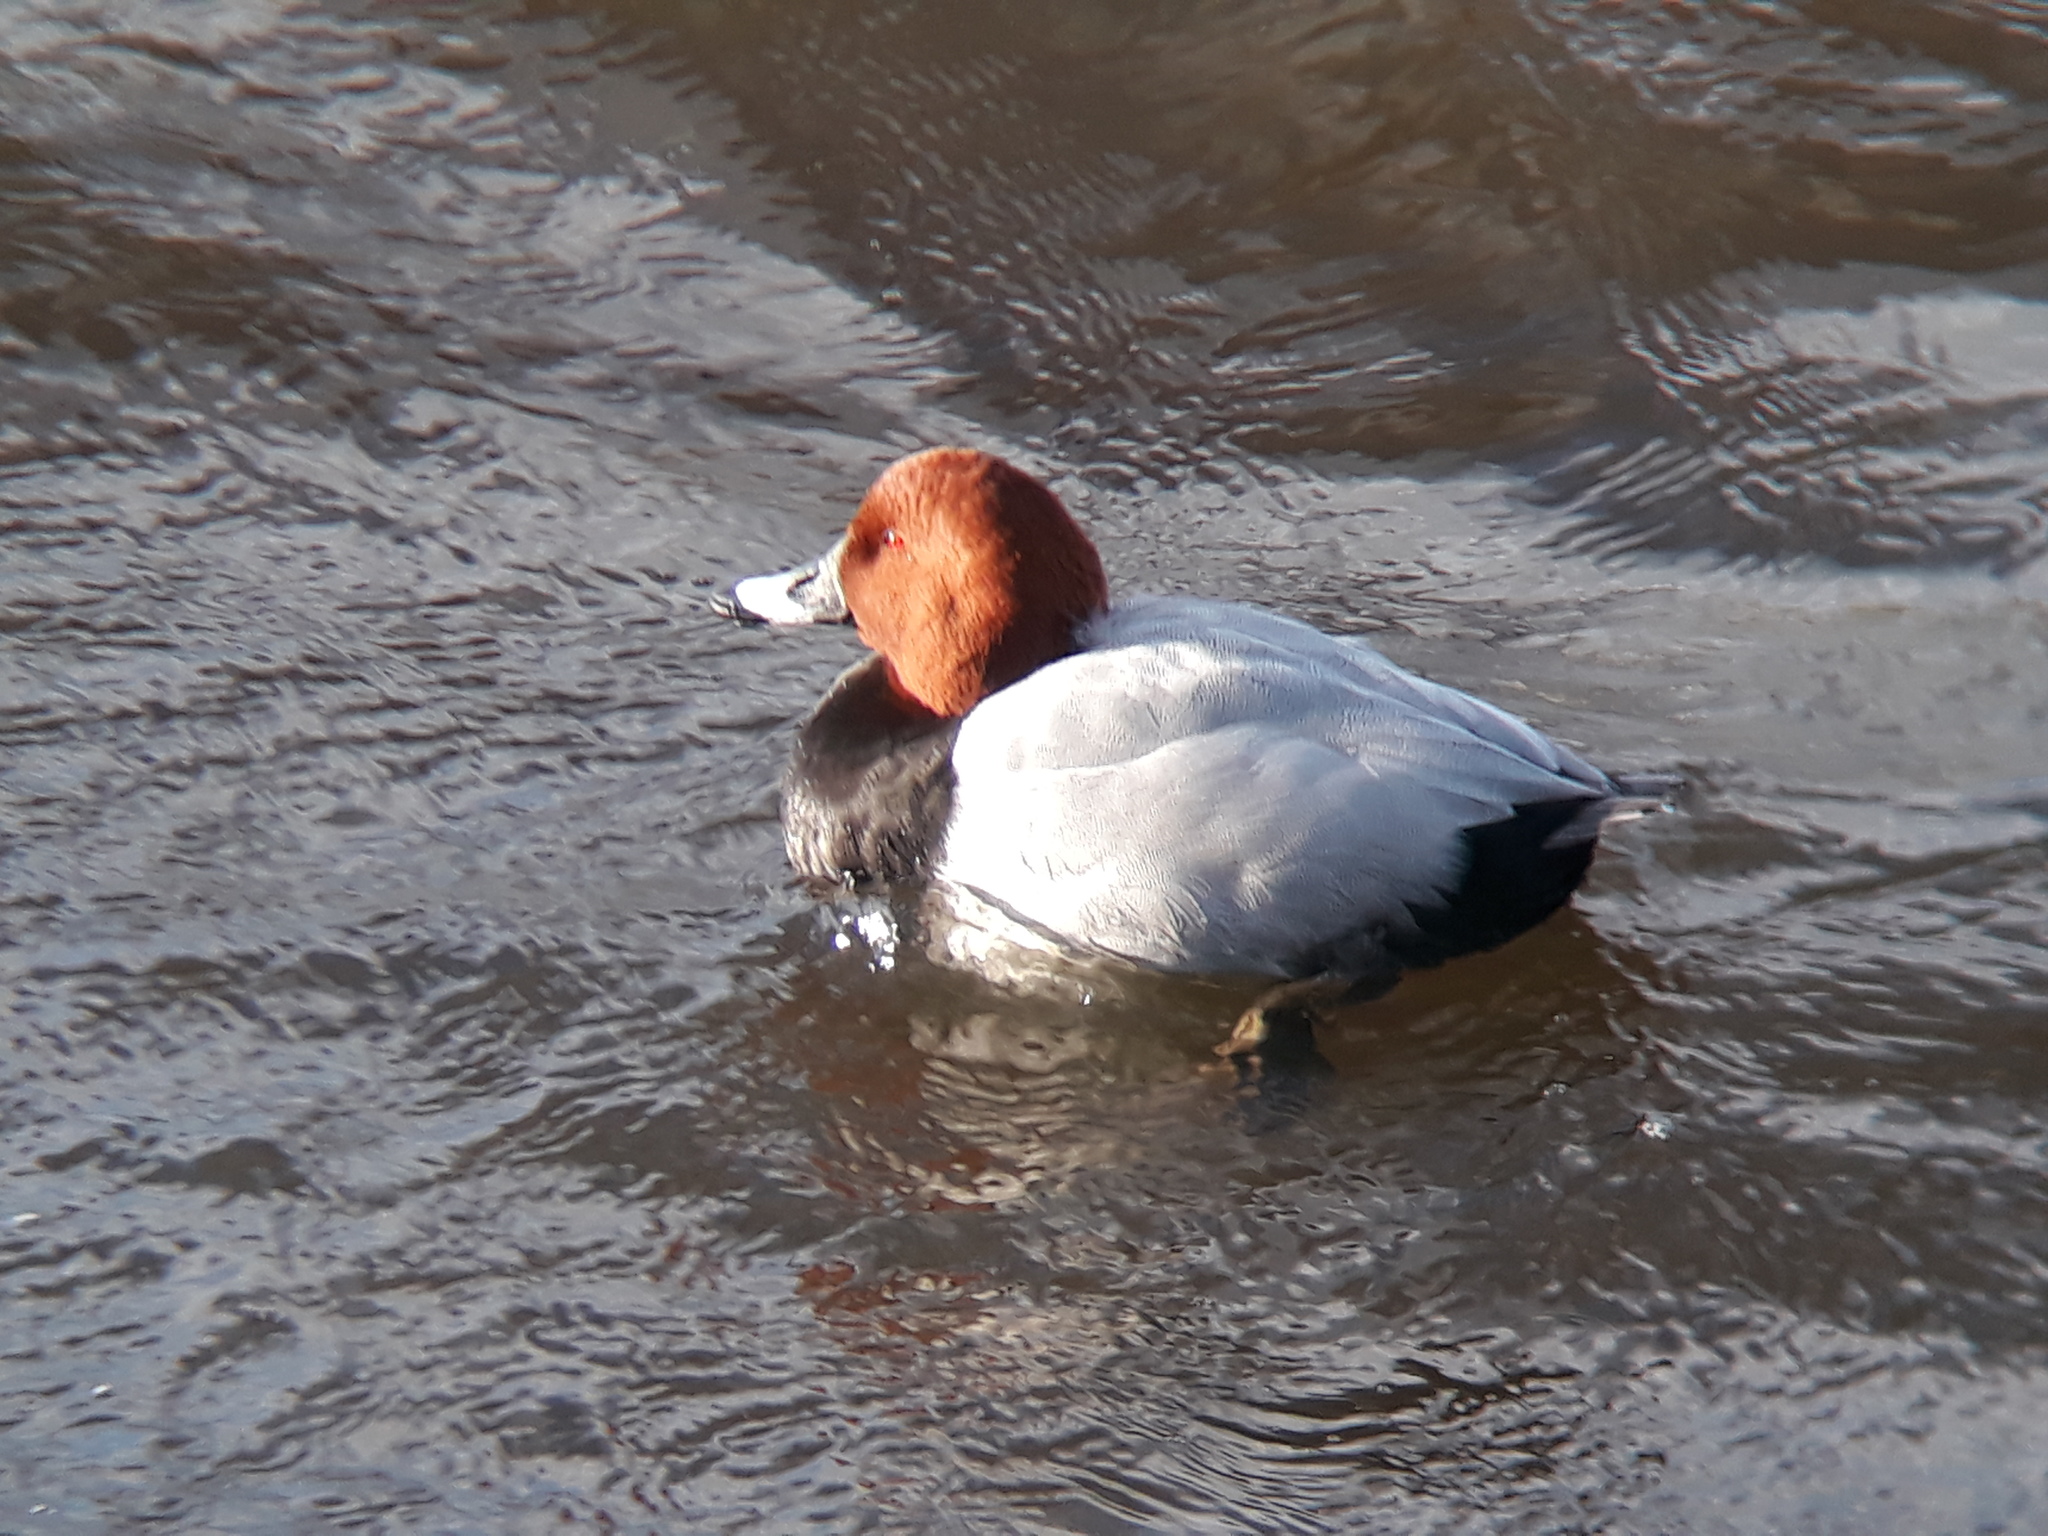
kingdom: Animalia
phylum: Chordata
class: Aves
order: Anseriformes
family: Anatidae
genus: Aythya
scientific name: Aythya ferina
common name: Common pochard
